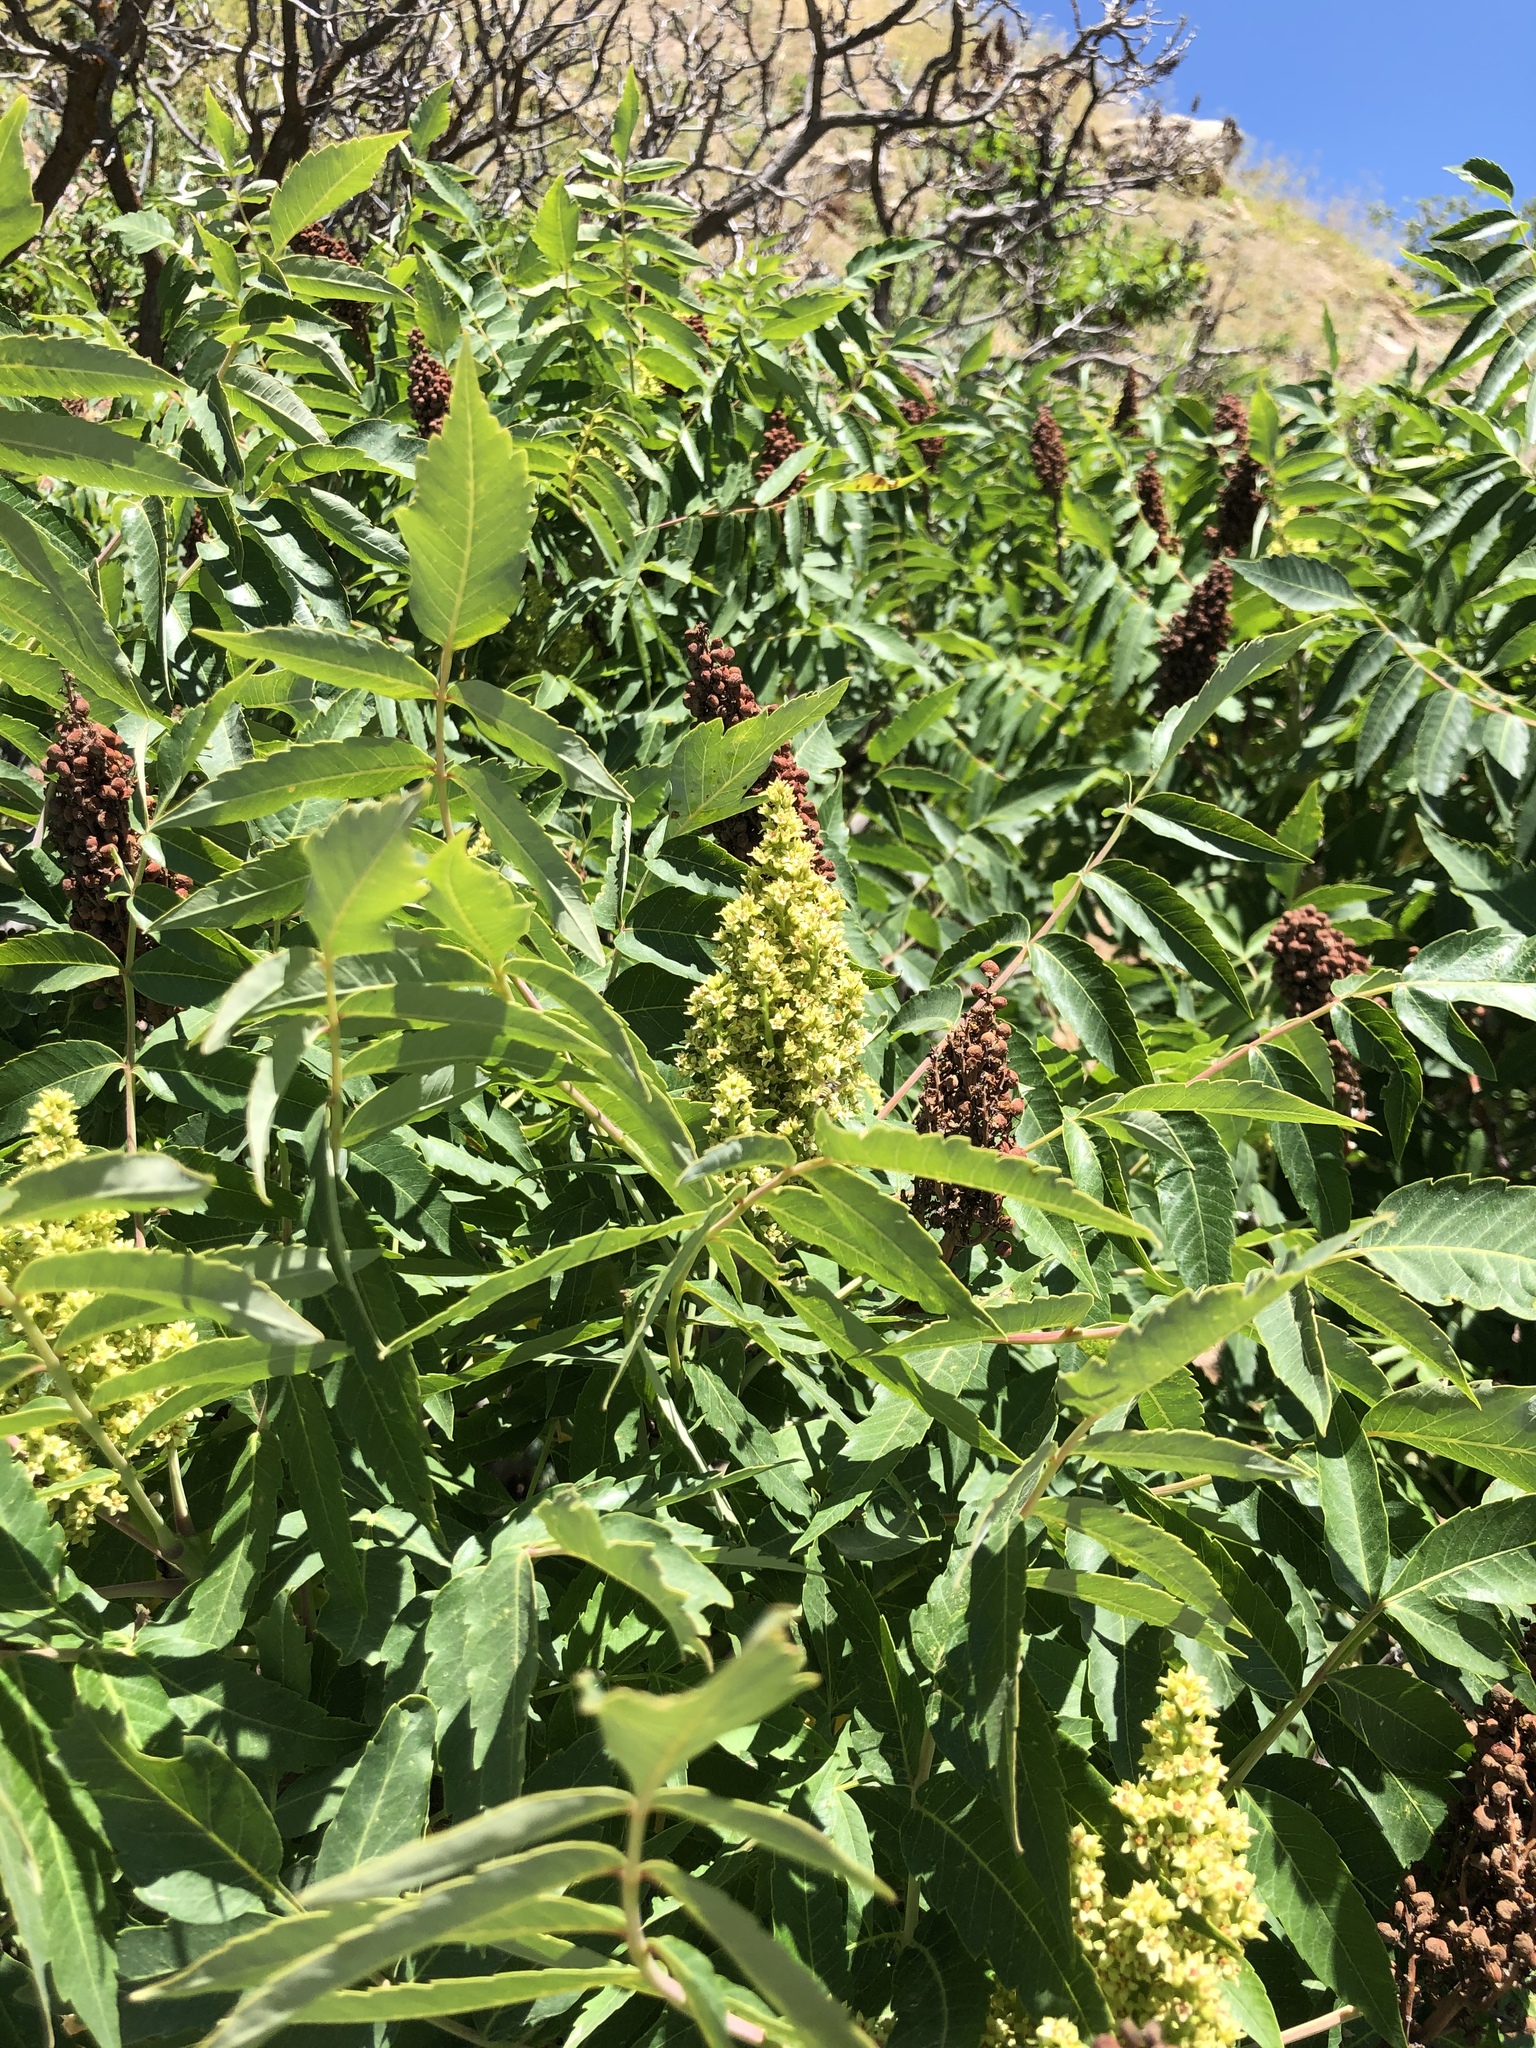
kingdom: Plantae
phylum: Tracheophyta
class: Magnoliopsida
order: Sapindales
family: Anacardiaceae
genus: Rhus
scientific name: Rhus glabra
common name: Scarlet sumac
